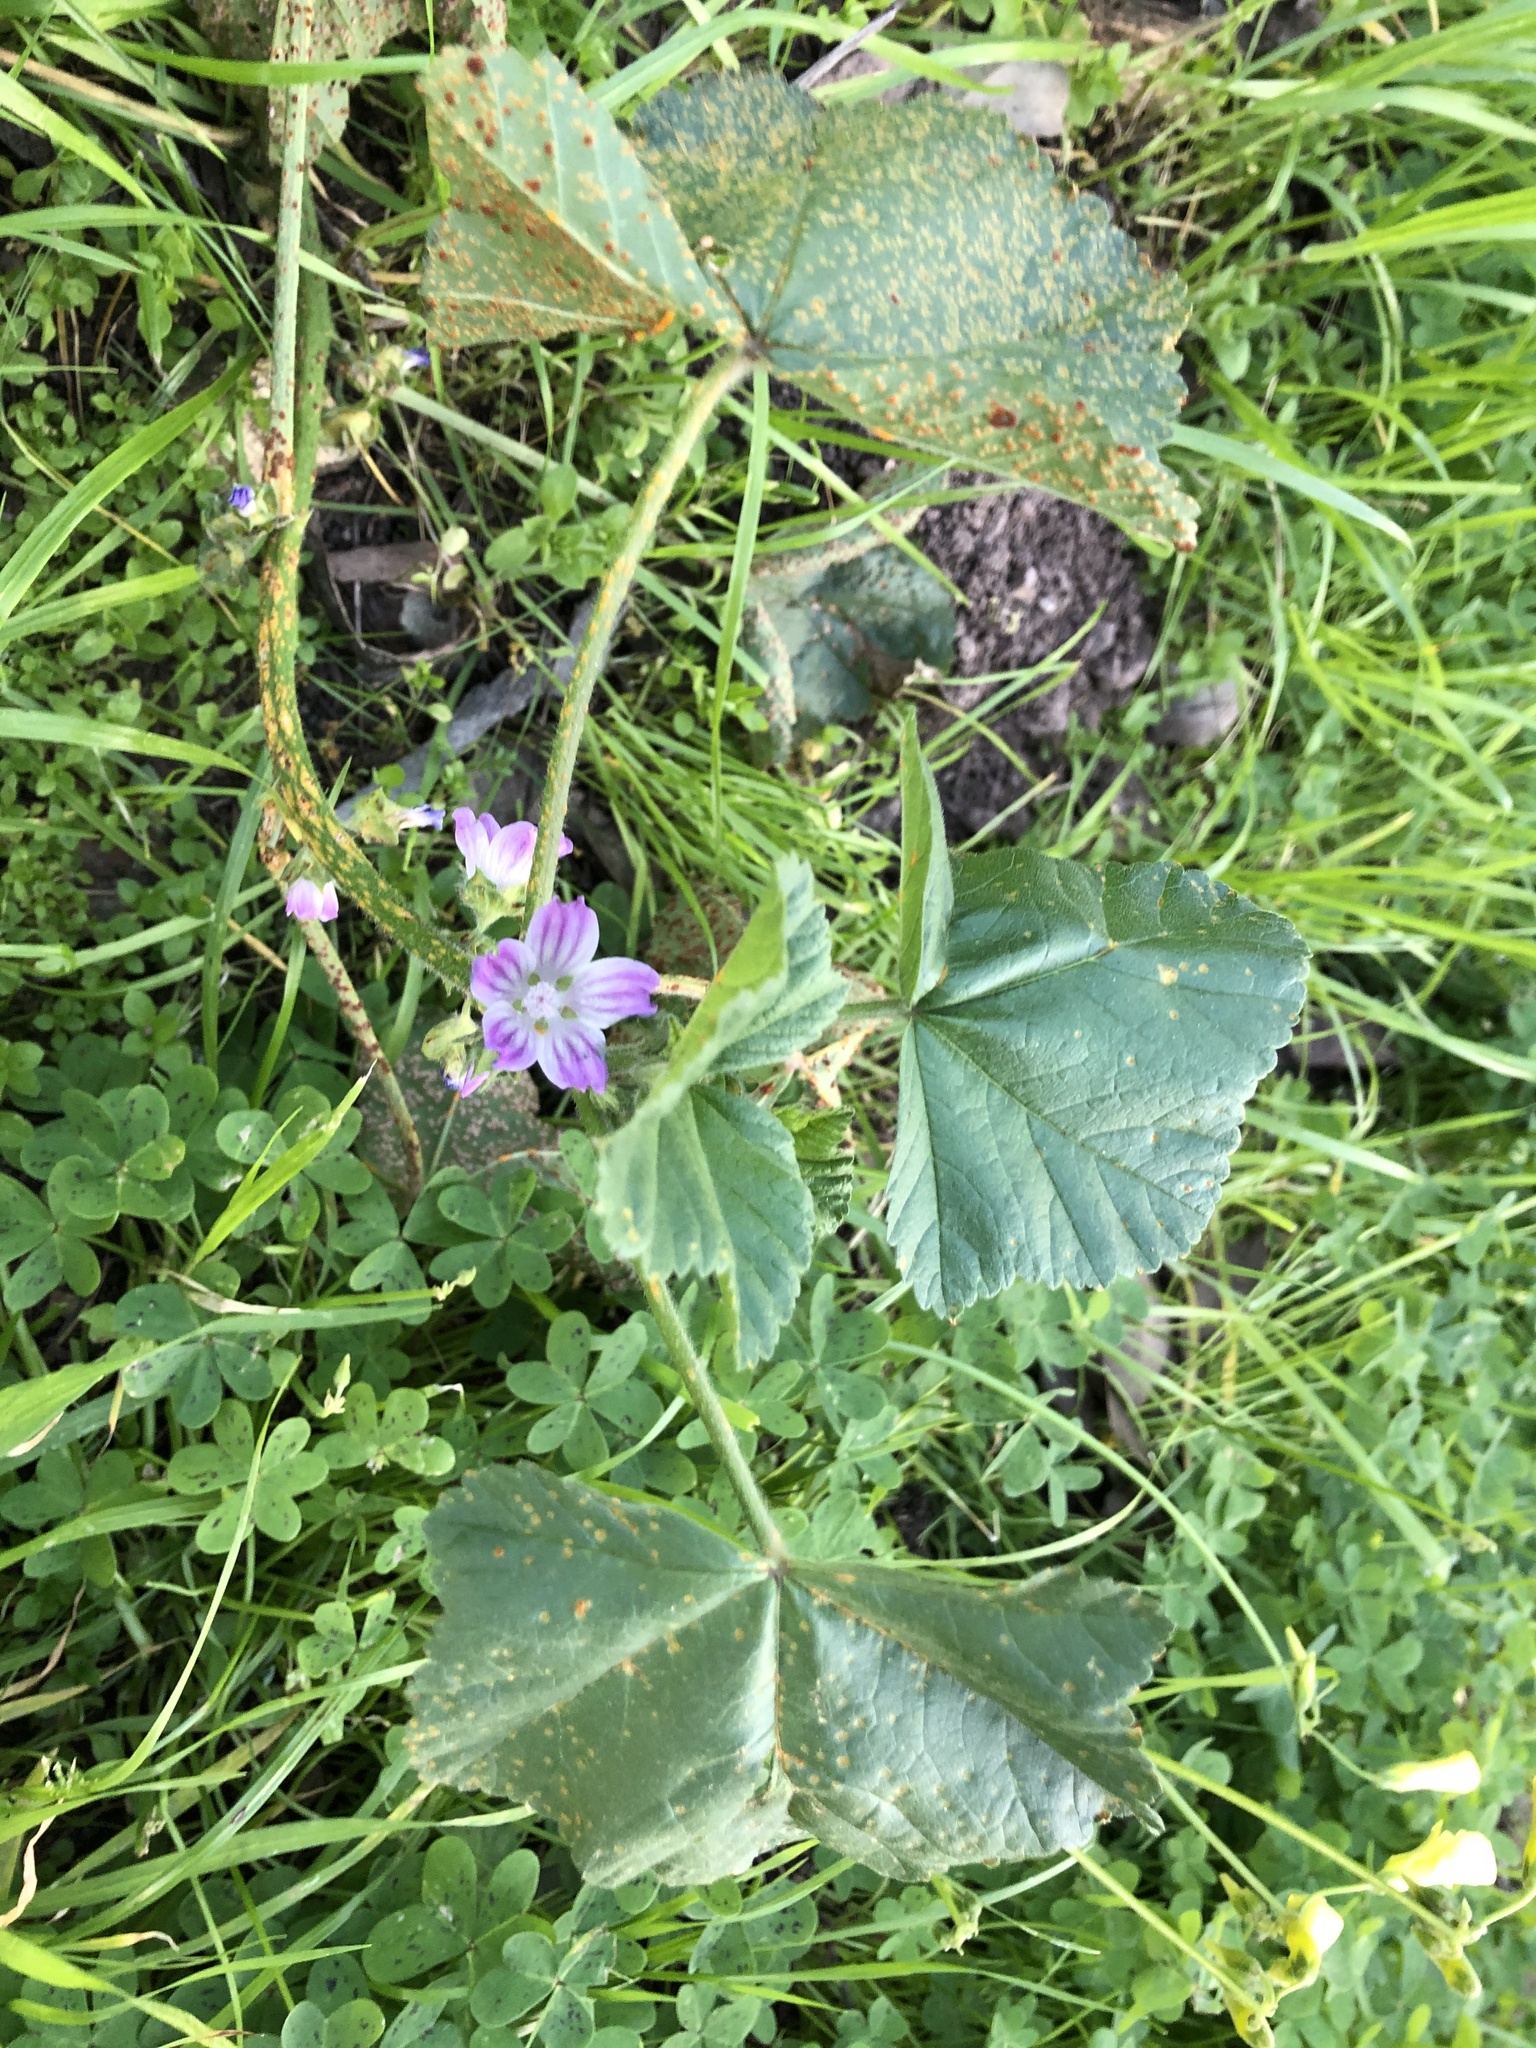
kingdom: Plantae
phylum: Tracheophyta
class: Magnoliopsida
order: Malvales
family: Malvaceae
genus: Malva
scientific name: Malva nicaeensis
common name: French mallow
